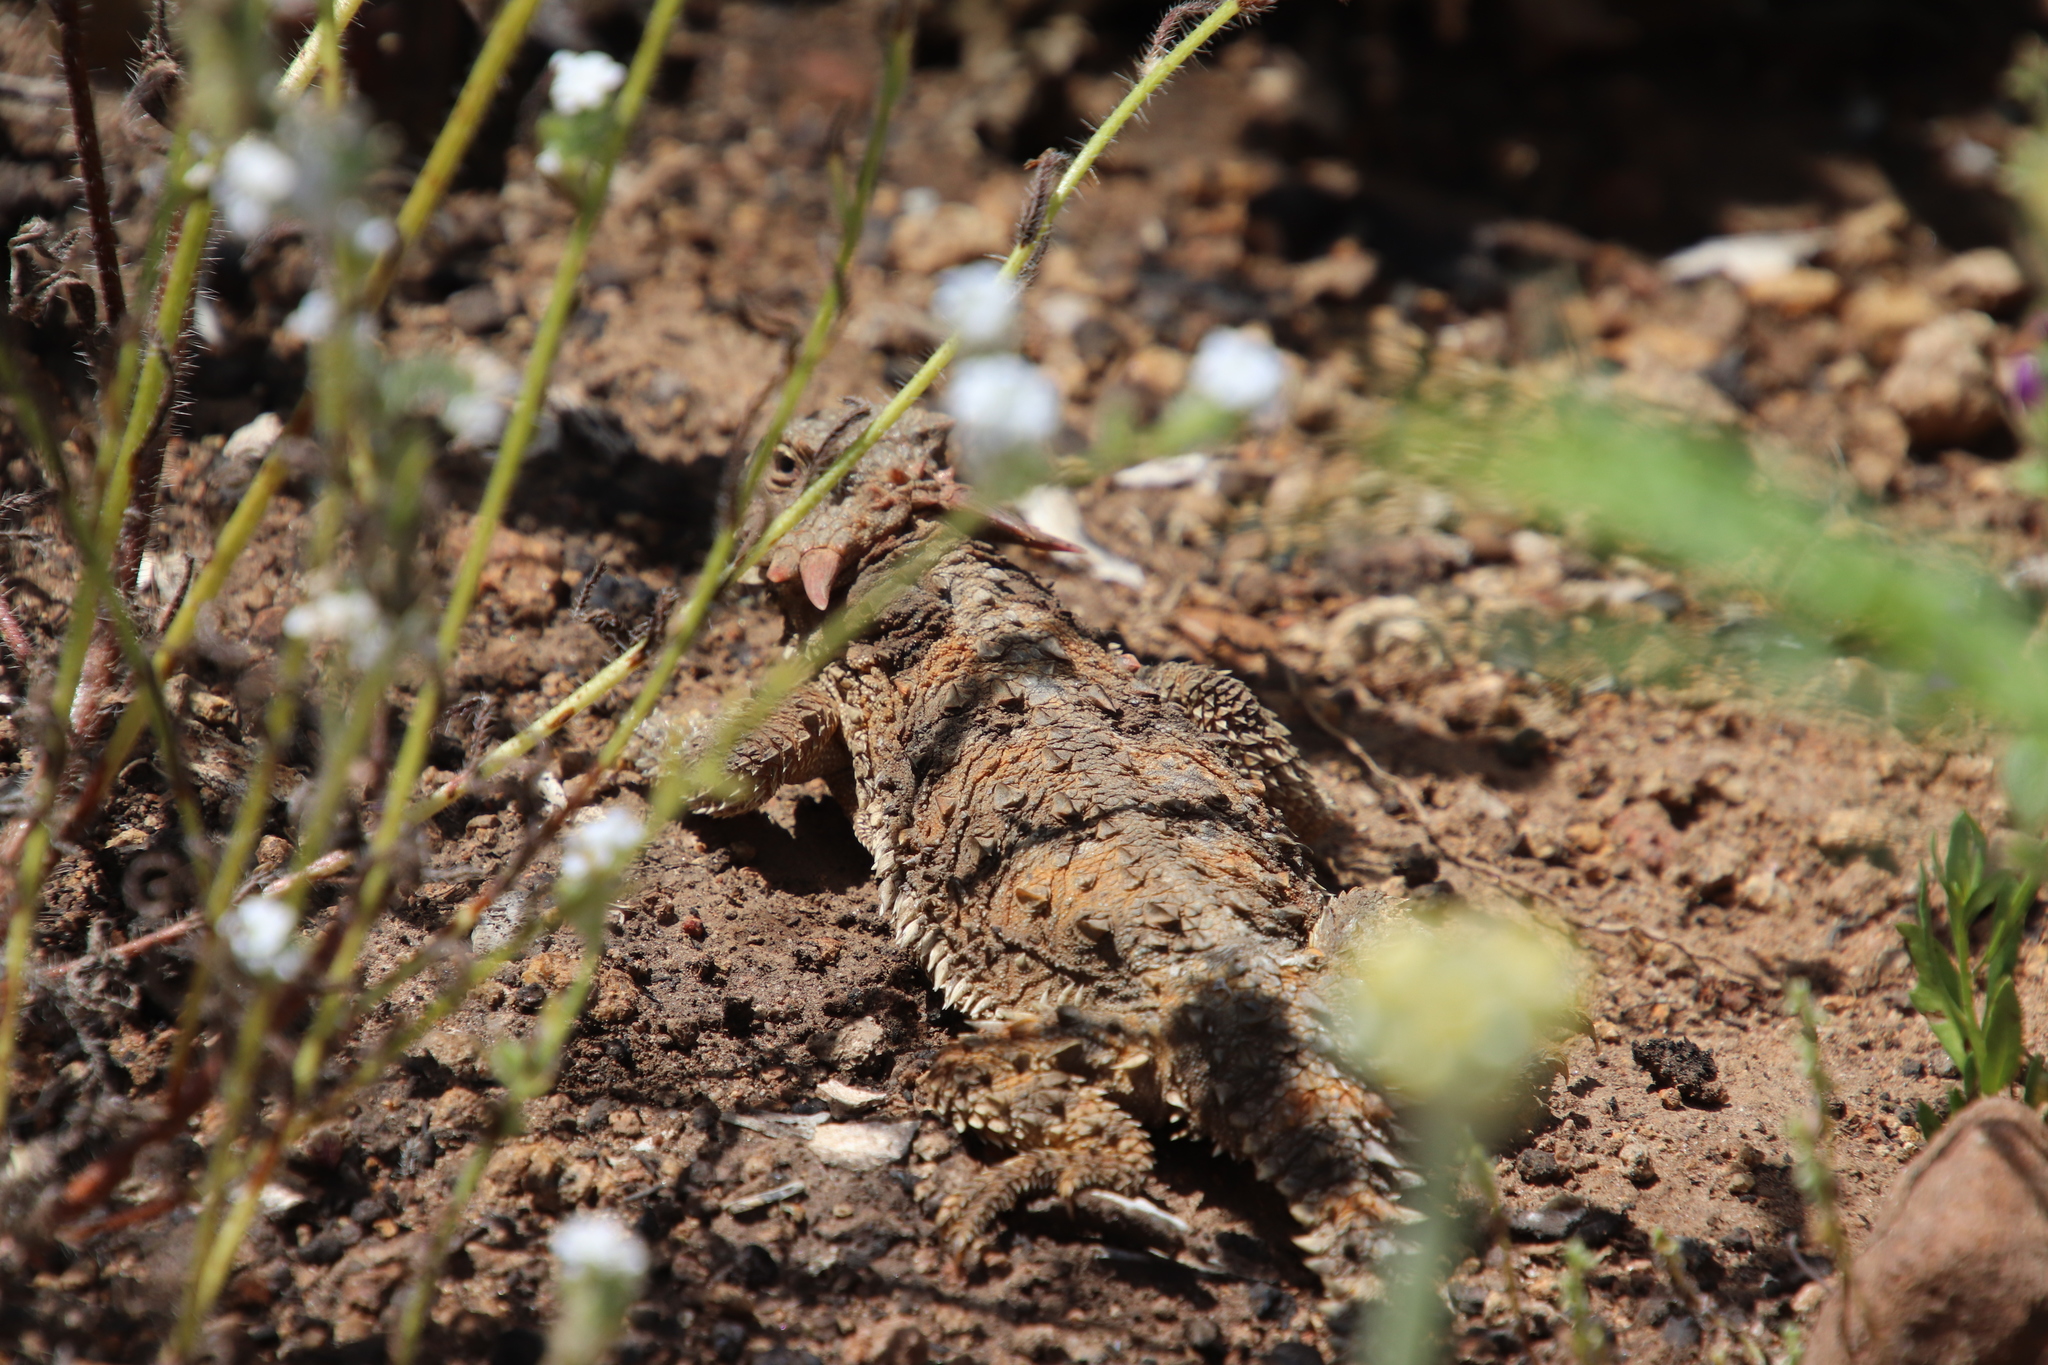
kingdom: Animalia
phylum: Chordata
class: Squamata
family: Phrynosomatidae
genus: Phrynosoma
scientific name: Phrynosoma blainvillii
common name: San diego horned lizard
